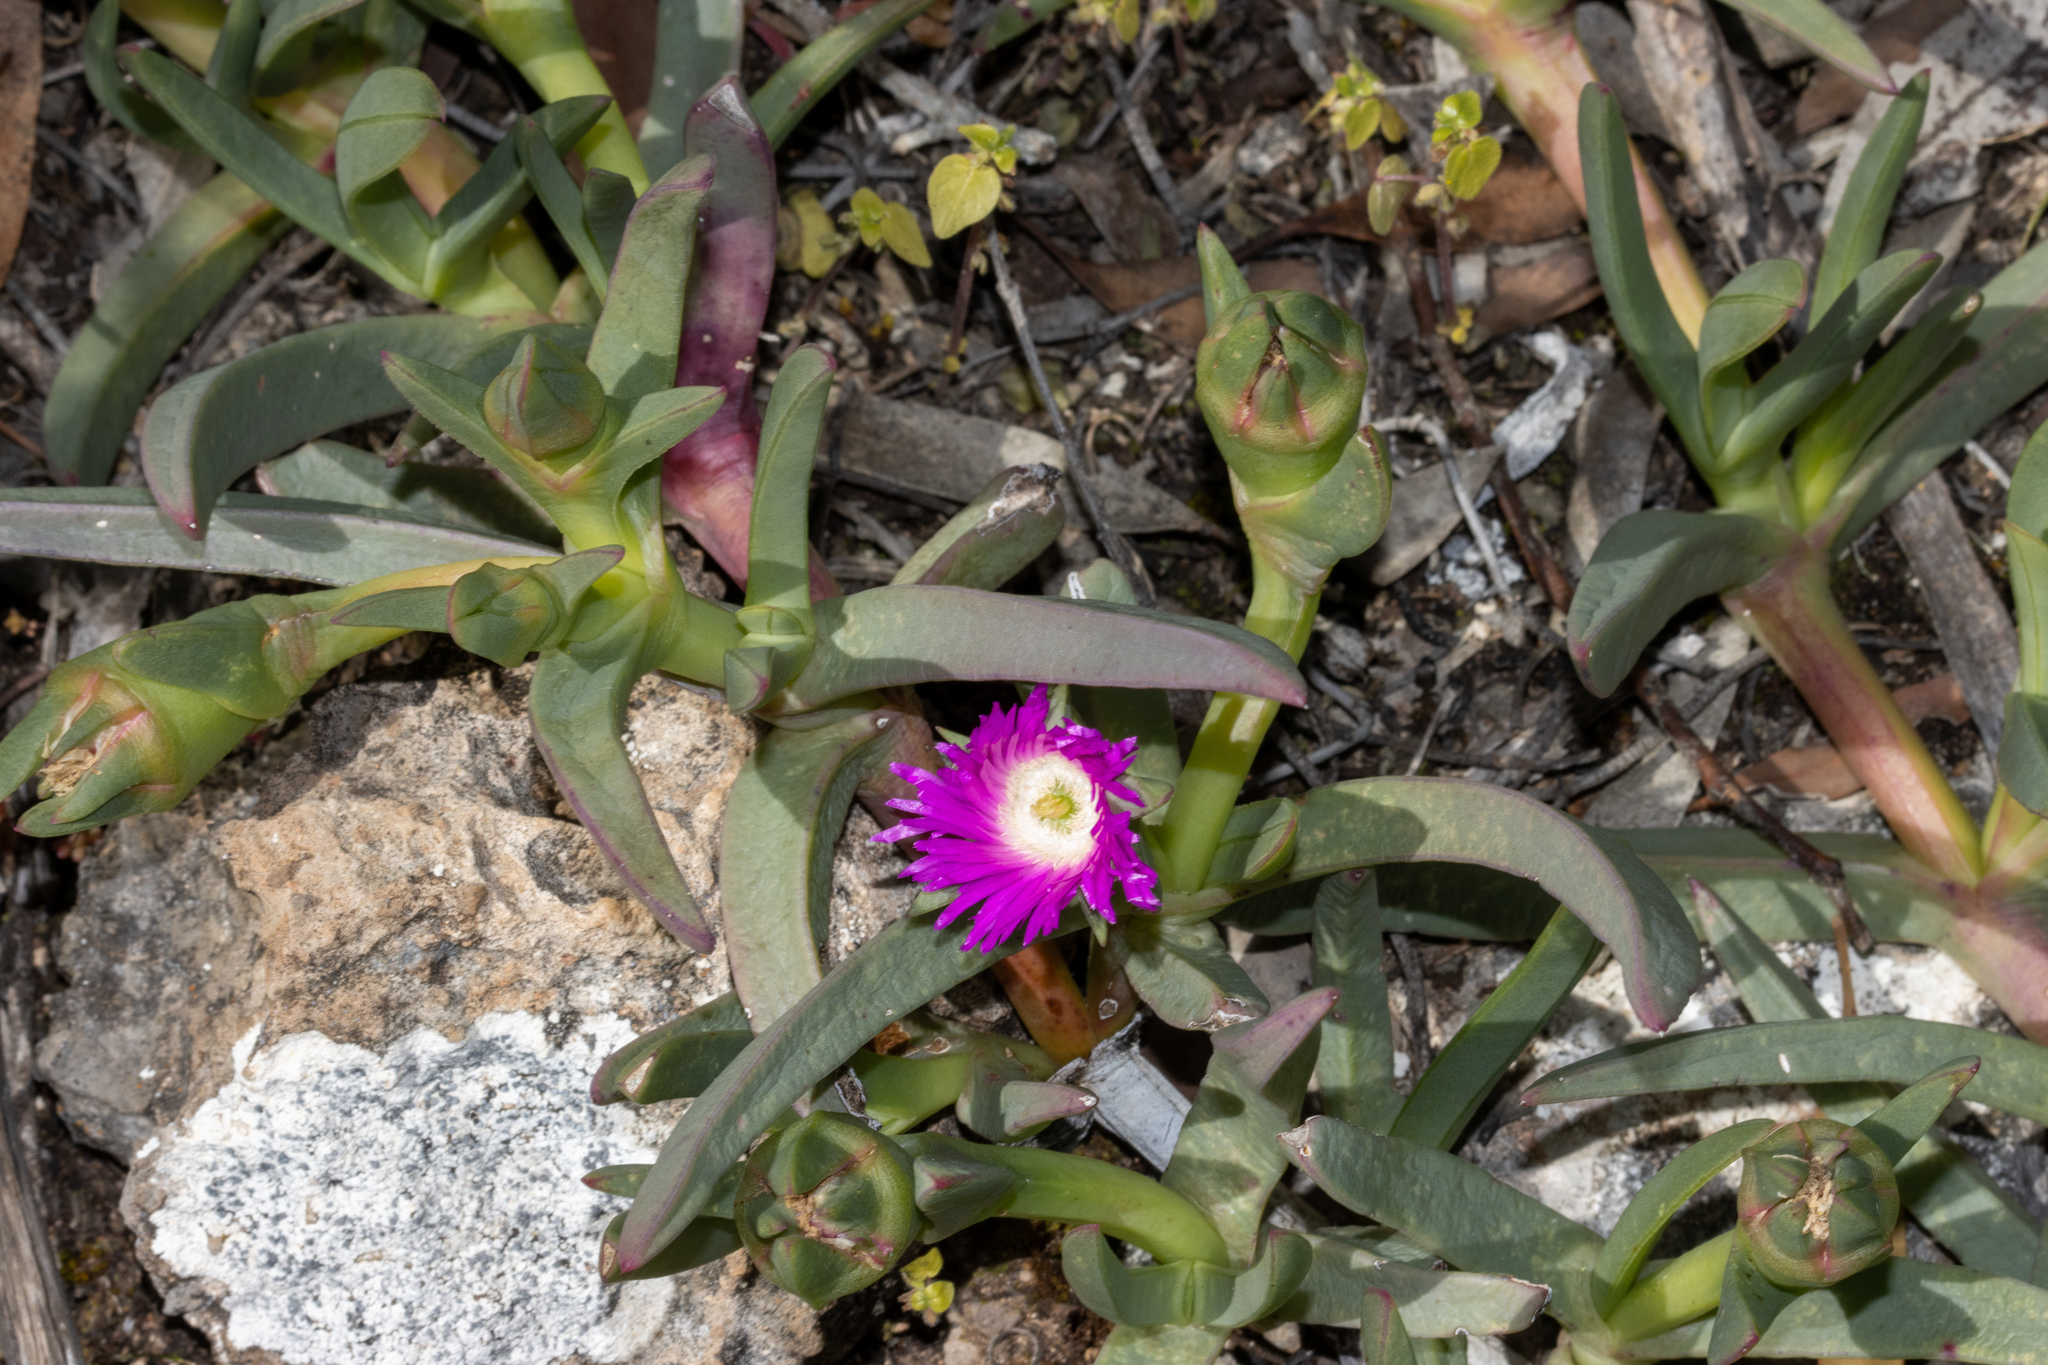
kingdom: Plantae
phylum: Tracheophyta
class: Magnoliopsida
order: Caryophyllales
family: Aizoaceae
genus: Carpobrotus
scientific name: Carpobrotus rossii
